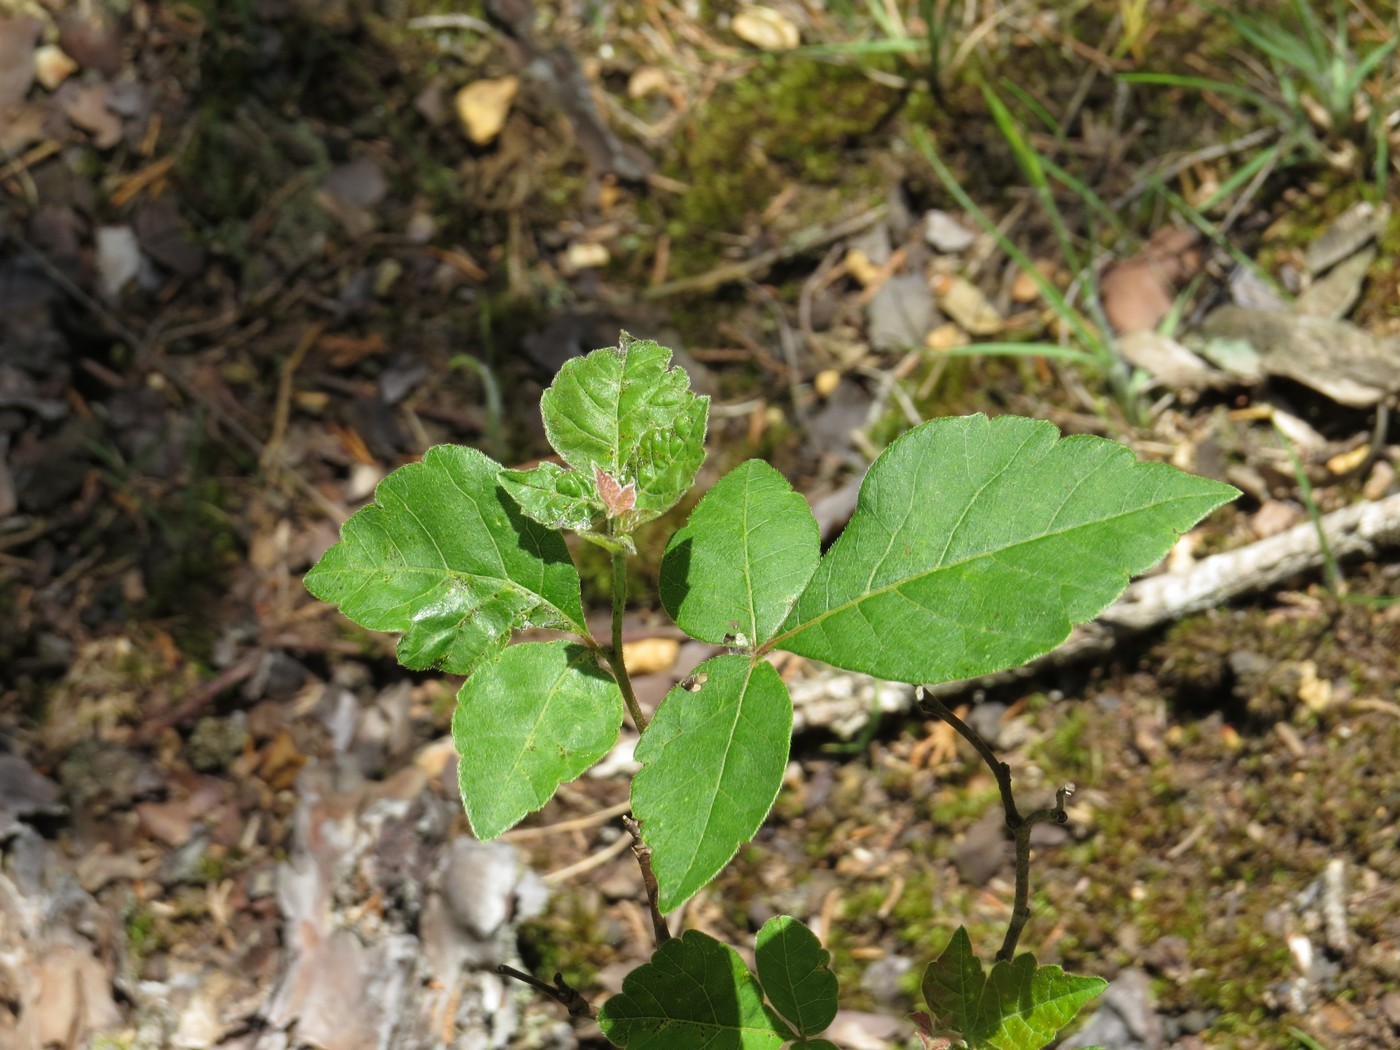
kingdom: Plantae
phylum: Tracheophyta
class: Magnoliopsida
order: Sapindales
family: Anacardiaceae
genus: Rhus
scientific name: Rhus aromatica
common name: Aromatic sumac
